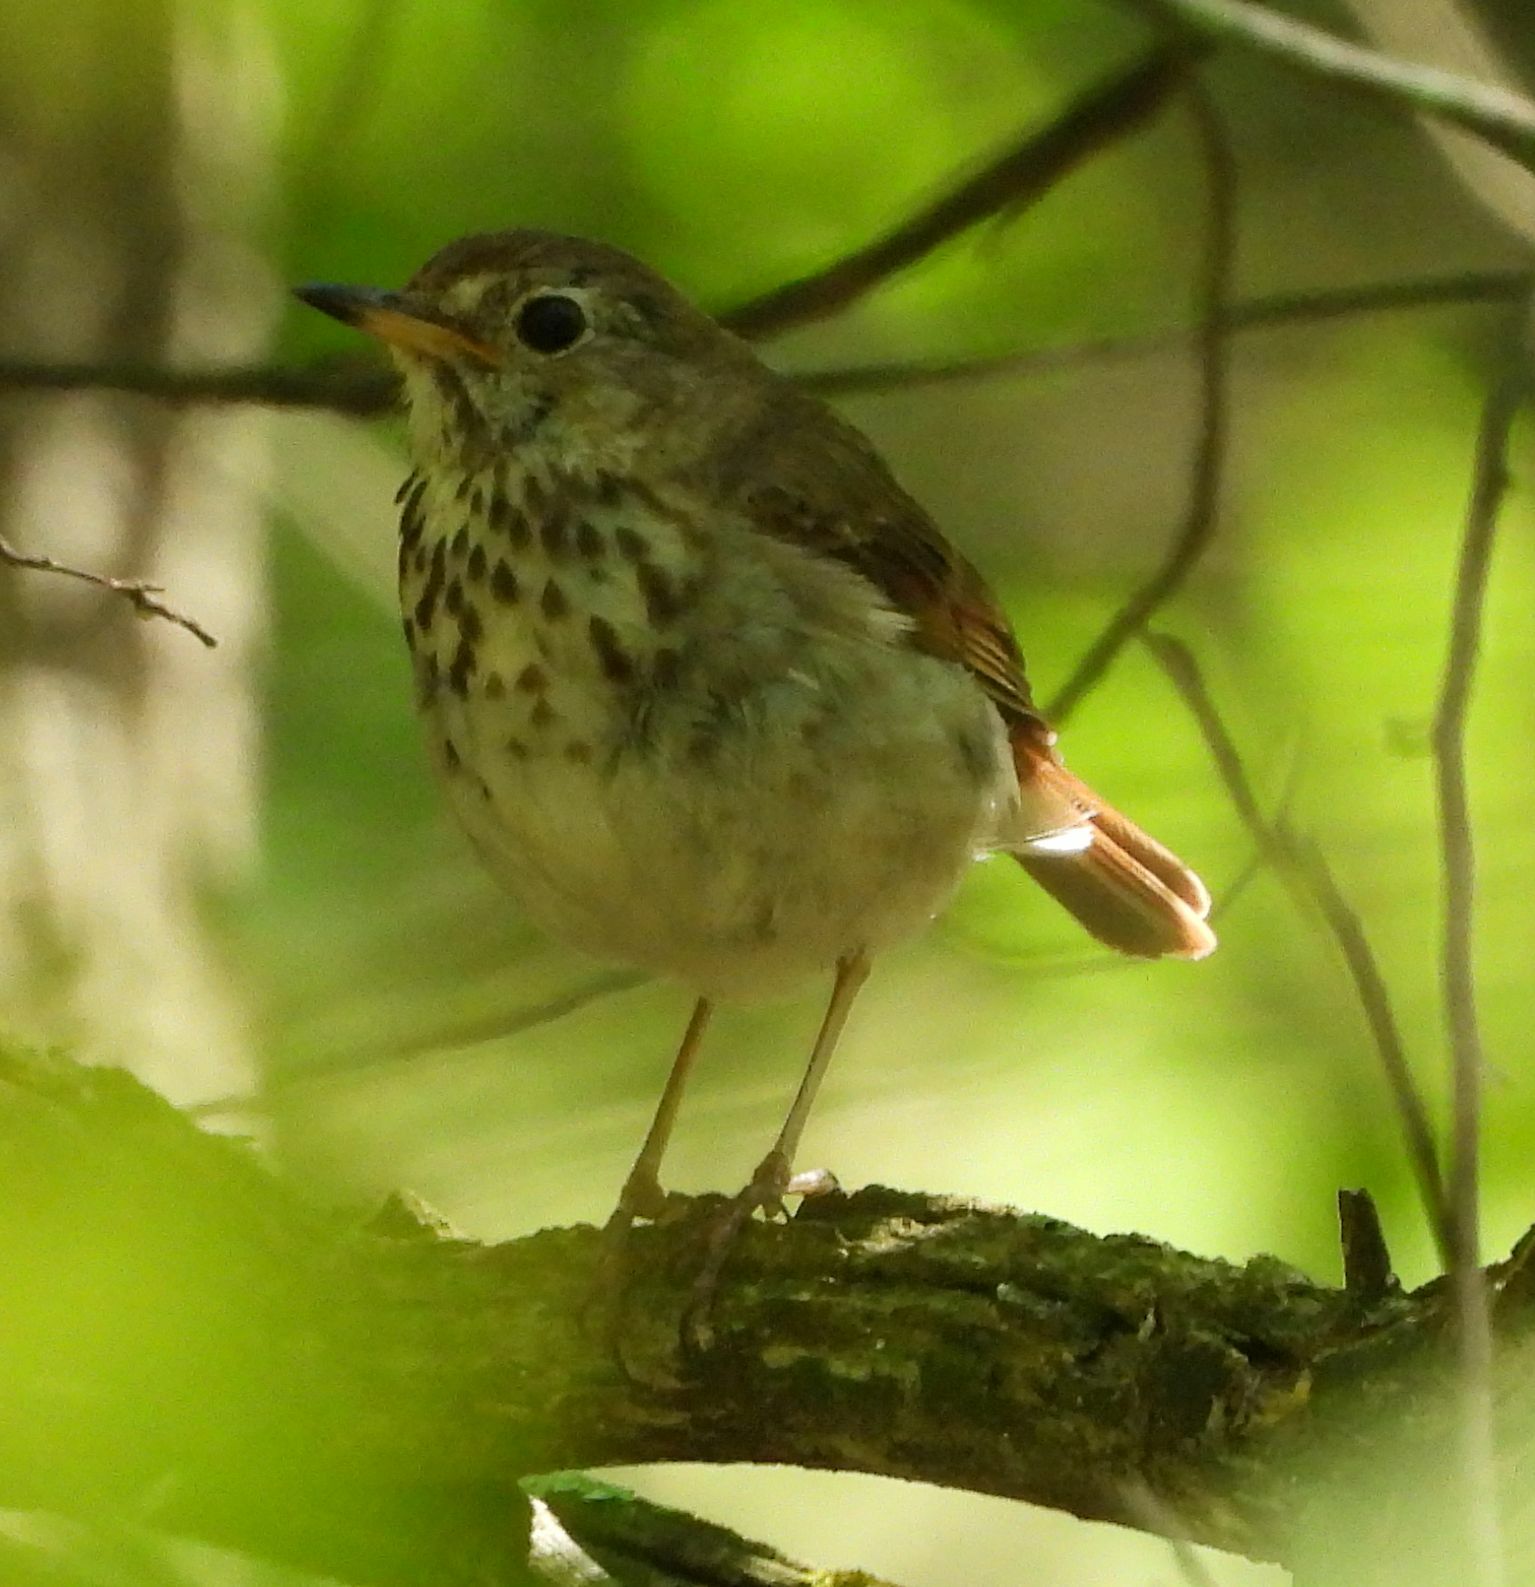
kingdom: Animalia
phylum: Chordata
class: Aves
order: Passeriformes
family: Turdidae
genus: Catharus
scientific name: Catharus guttatus
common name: Hermit thrush
